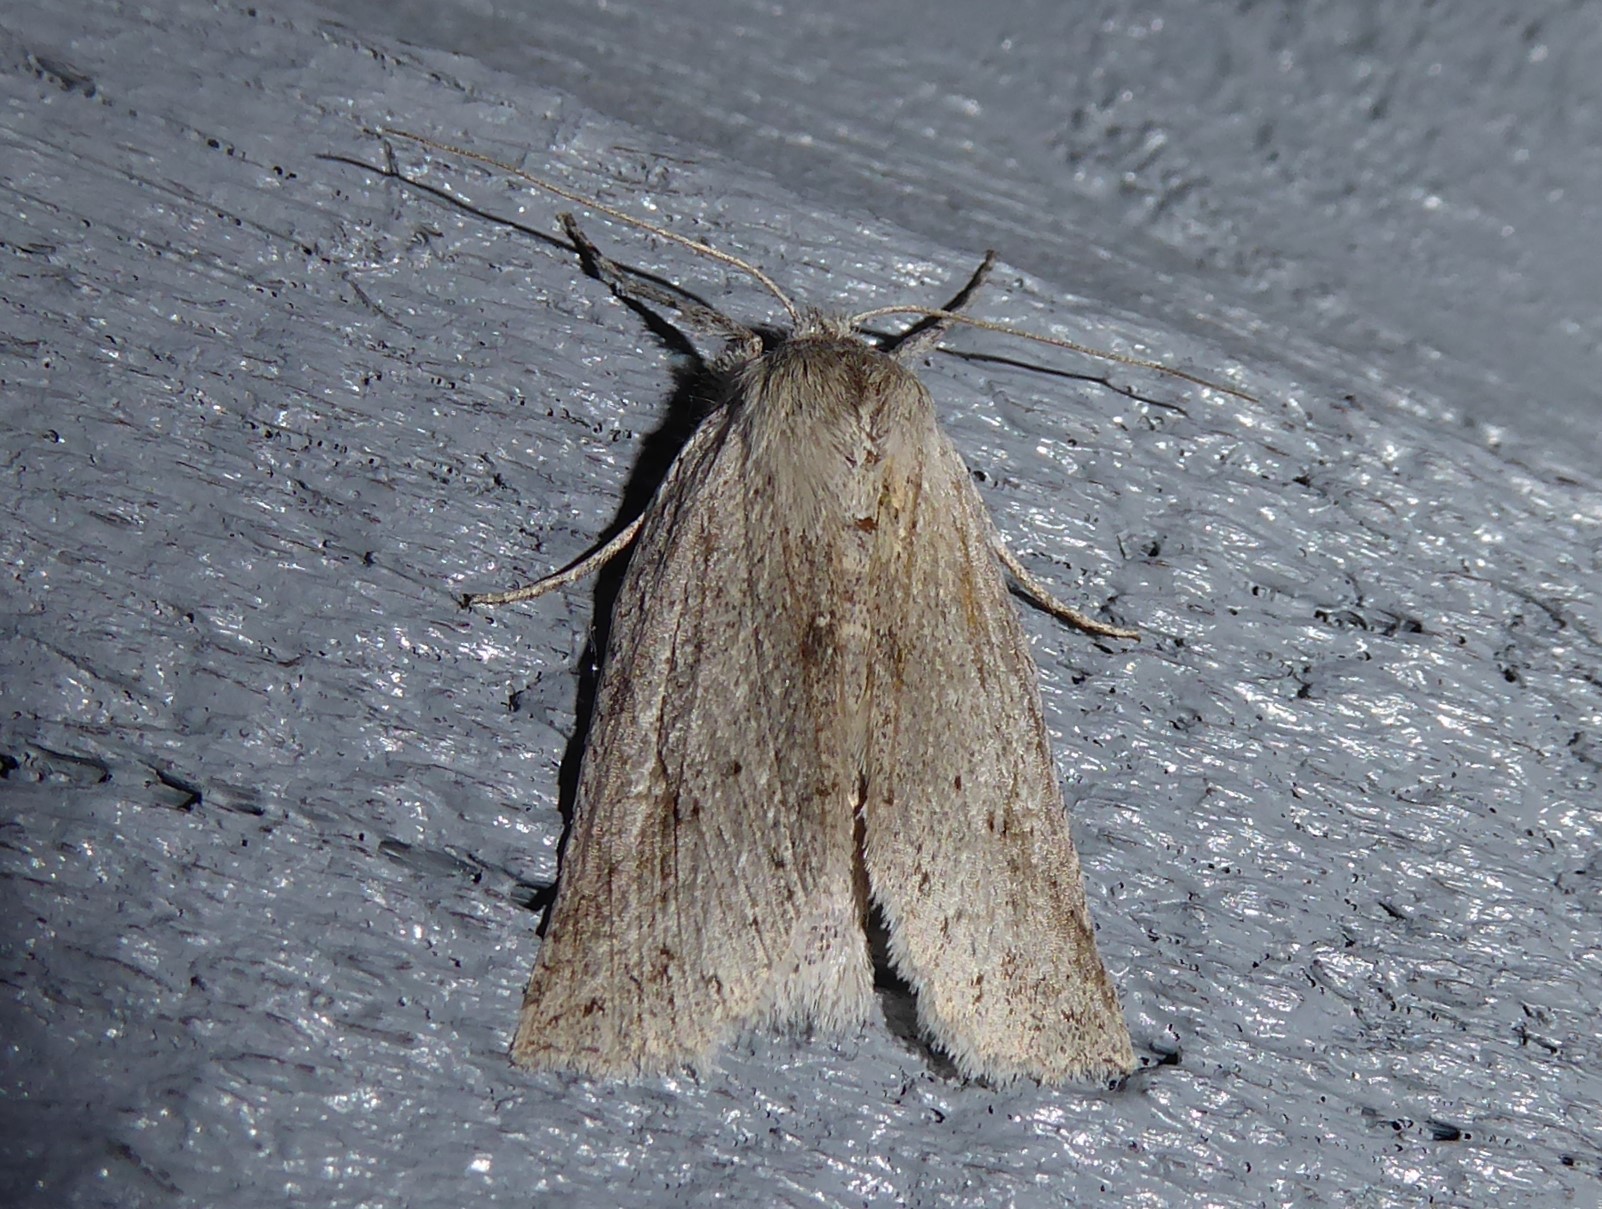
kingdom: Animalia
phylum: Arthropoda
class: Insecta
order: Lepidoptera
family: Geometridae
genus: Declana
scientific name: Declana leptomera
